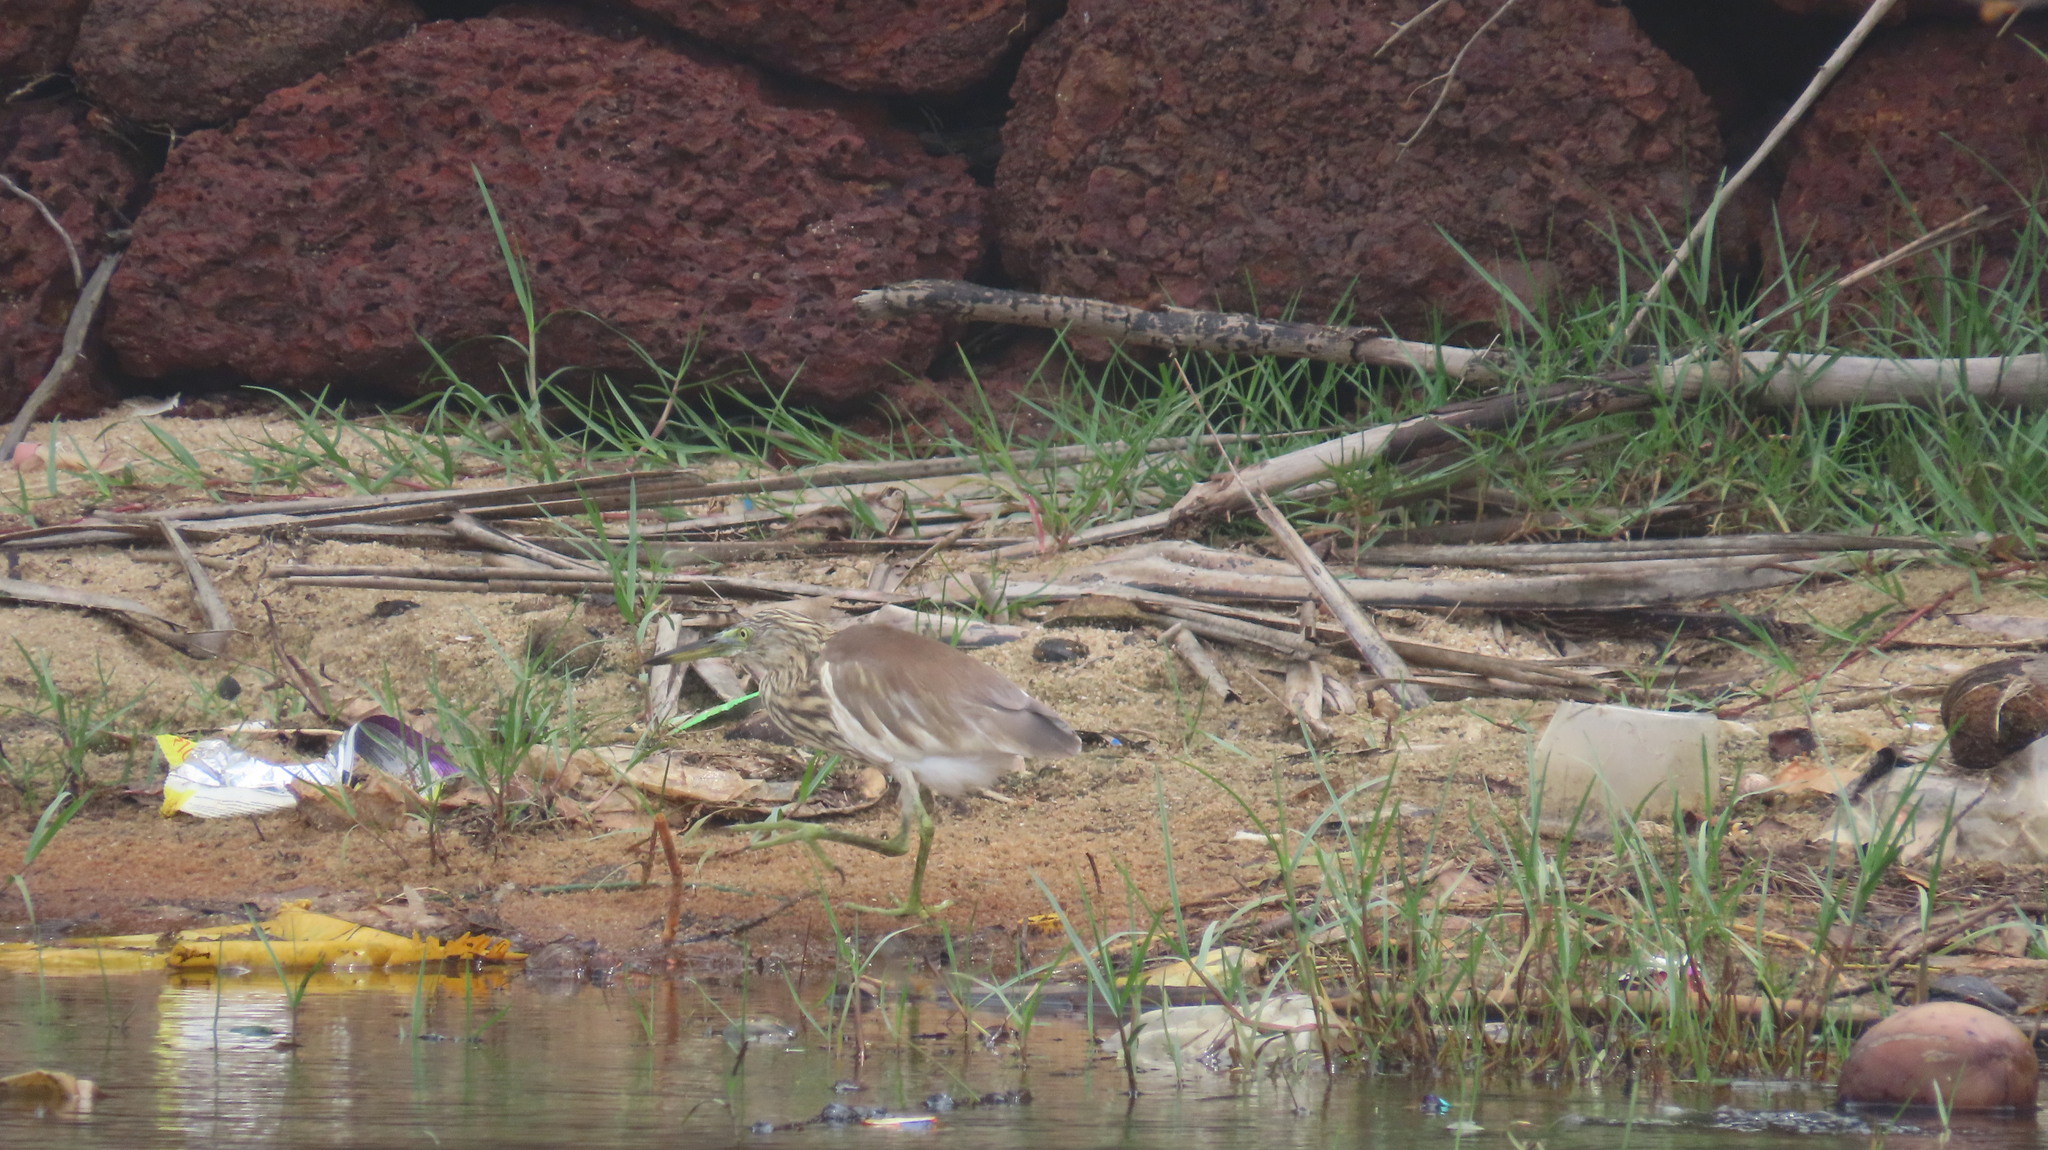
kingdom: Animalia
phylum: Chordata
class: Aves
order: Pelecaniformes
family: Ardeidae
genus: Ardeola
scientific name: Ardeola grayii
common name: Indian pond heron
